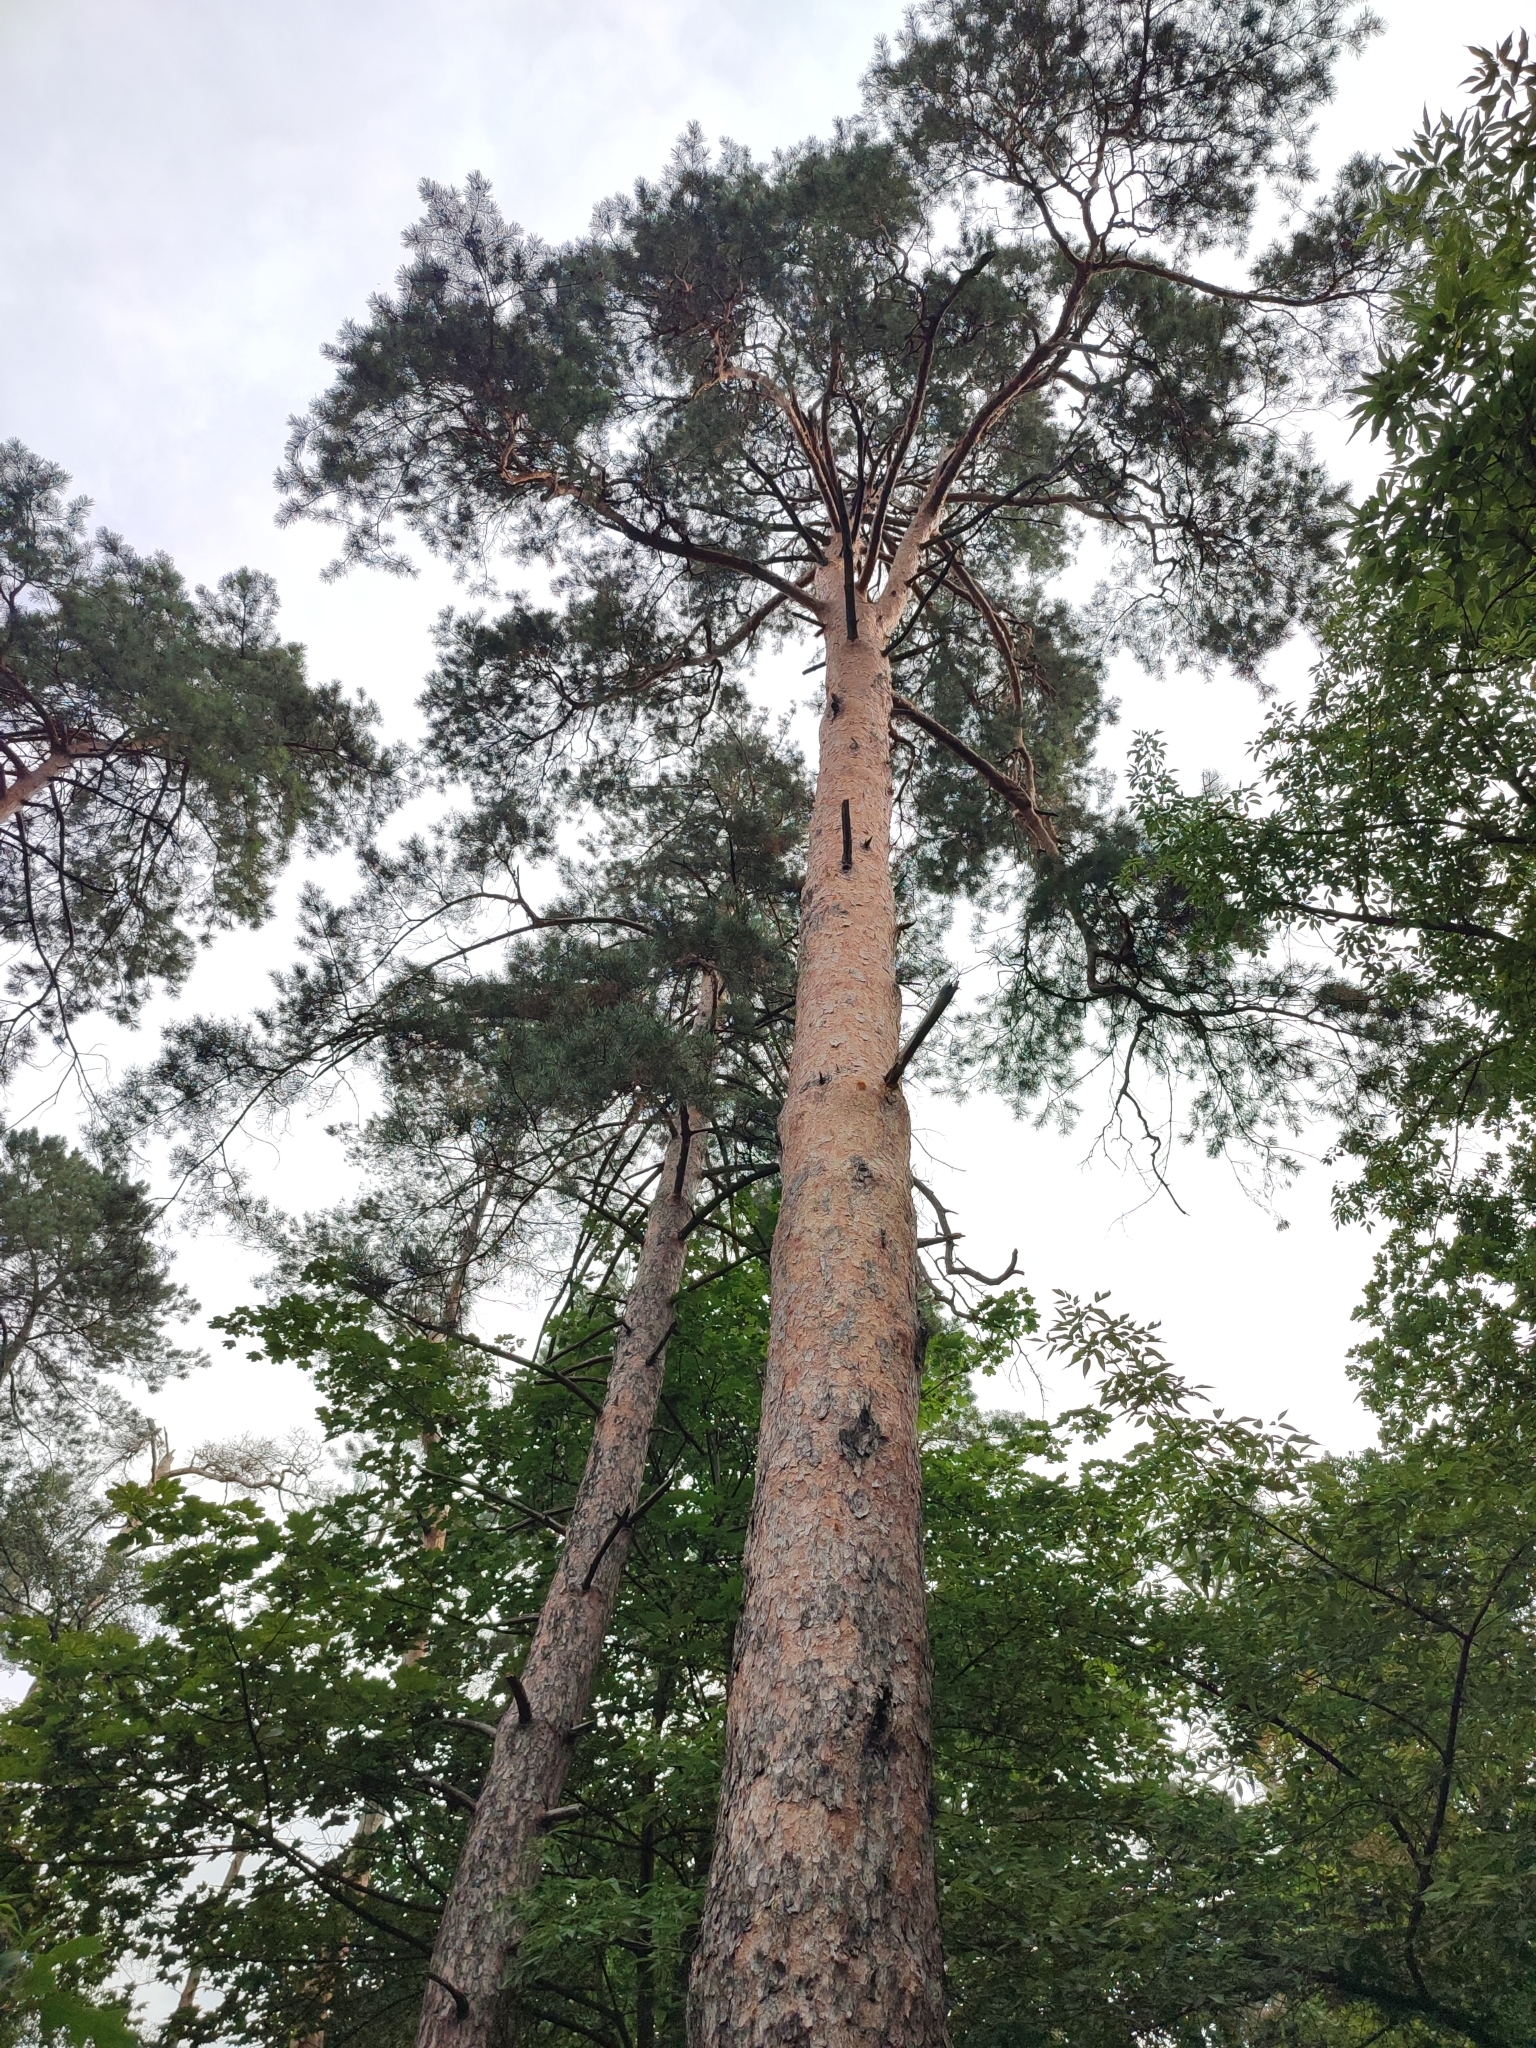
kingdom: Plantae
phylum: Tracheophyta
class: Pinopsida
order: Pinales
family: Pinaceae
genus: Pinus
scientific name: Pinus sylvestris
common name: Scots pine
